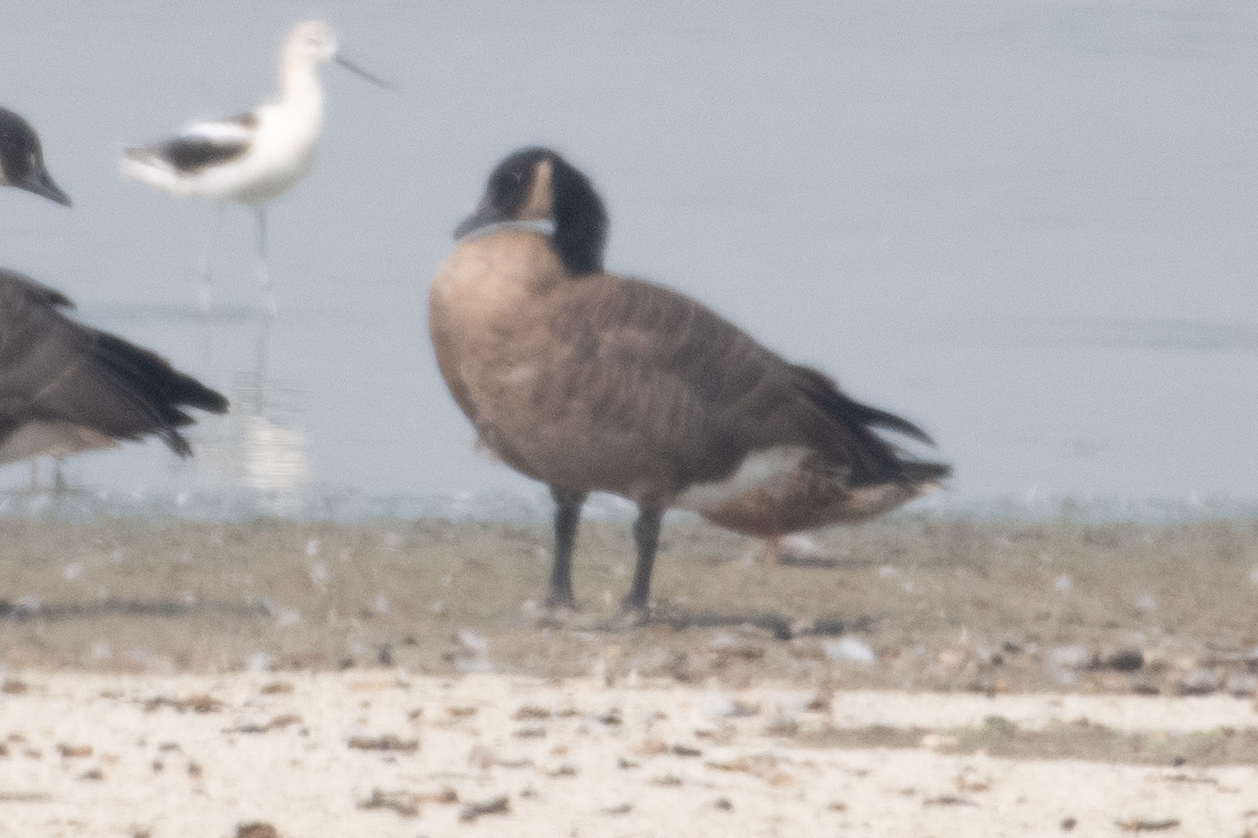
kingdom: Animalia
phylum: Chordata
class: Aves
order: Anseriformes
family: Anatidae
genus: Branta
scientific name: Branta canadensis
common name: Canada goose
